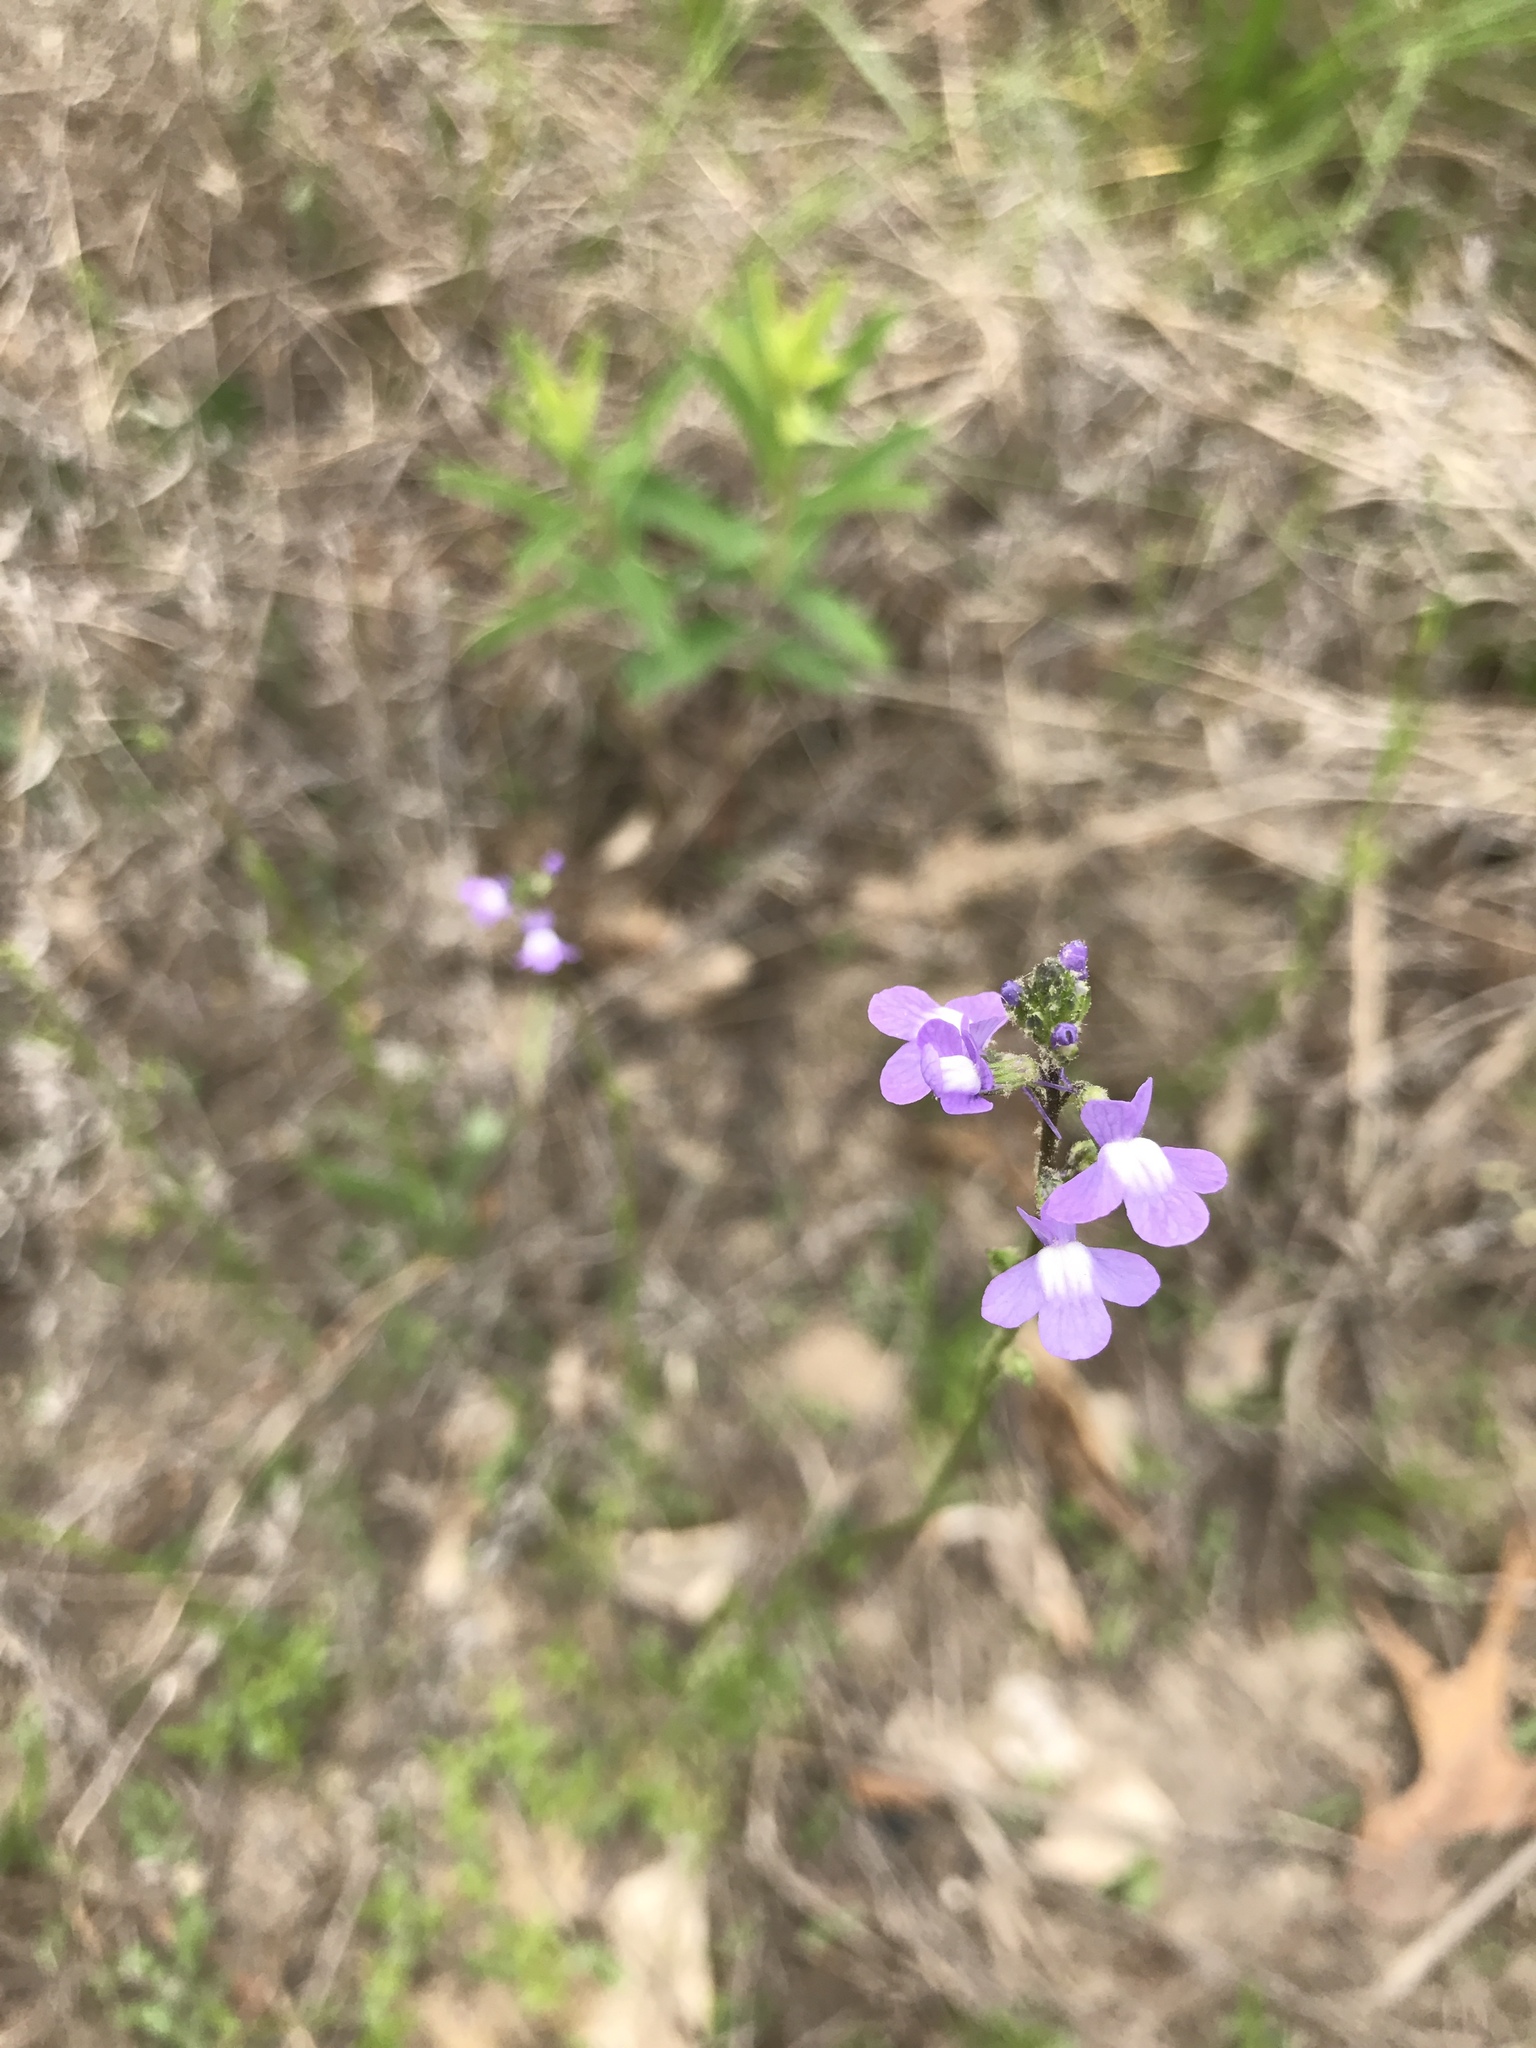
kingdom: Plantae
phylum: Tracheophyta
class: Magnoliopsida
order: Lamiales
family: Plantaginaceae
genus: Nuttallanthus
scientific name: Nuttallanthus canadensis
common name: Blue toadflax
